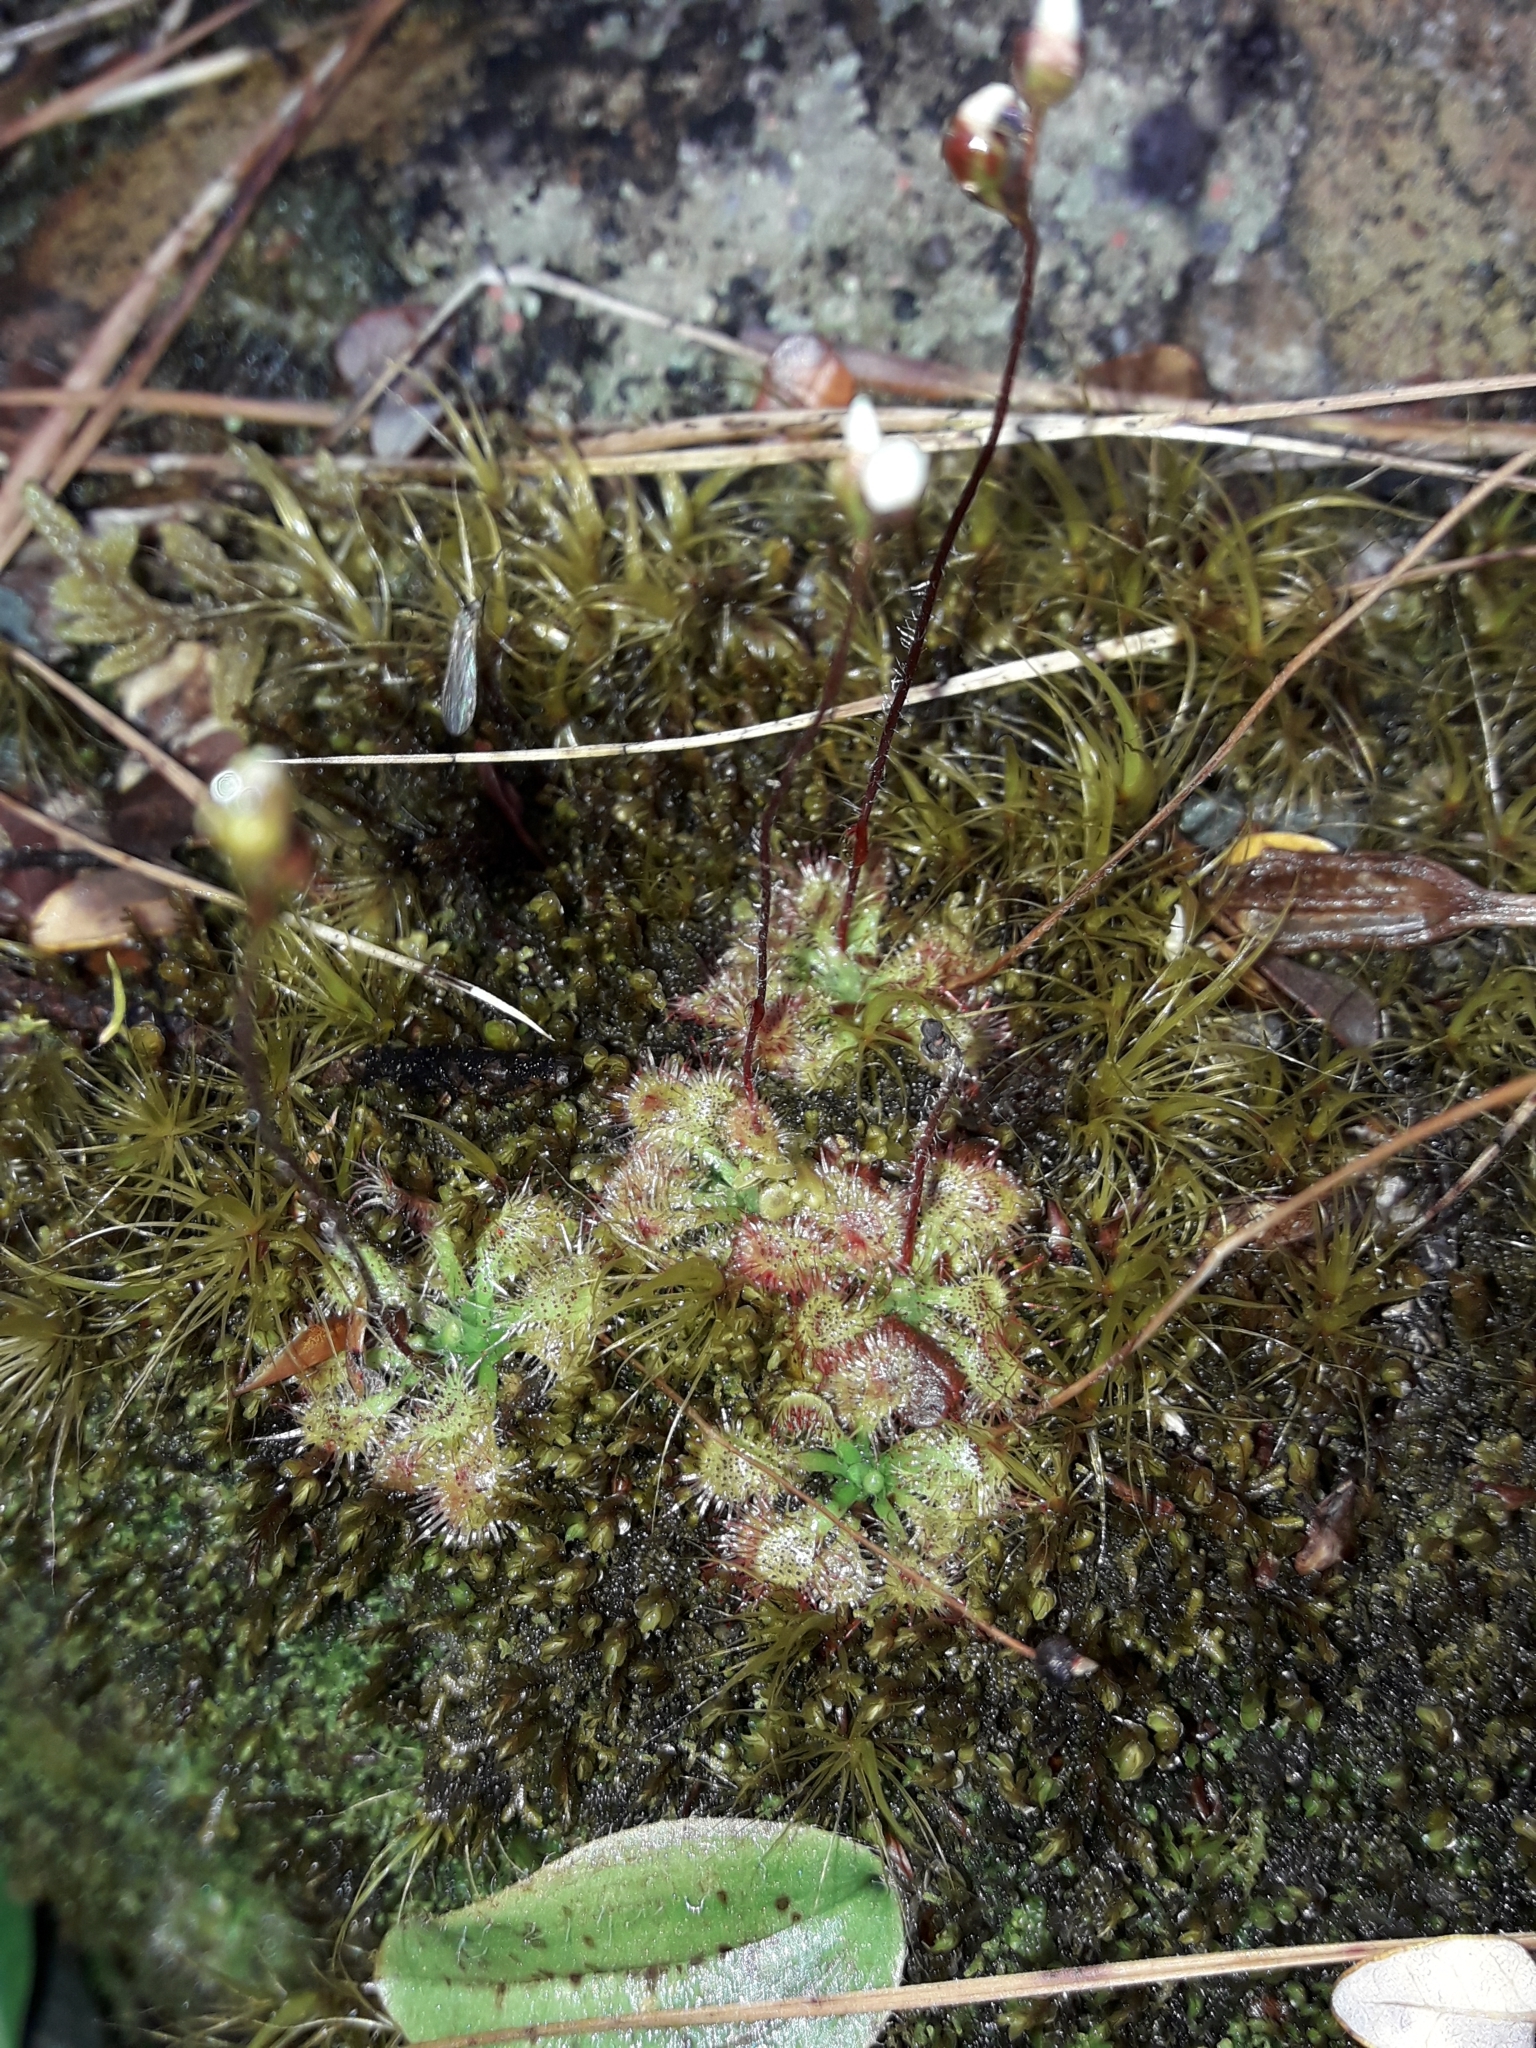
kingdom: Plantae
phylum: Tracheophyta
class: Magnoliopsida
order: Caryophyllales
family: Droseraceae
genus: Drosera
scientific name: Drosera spatulata
